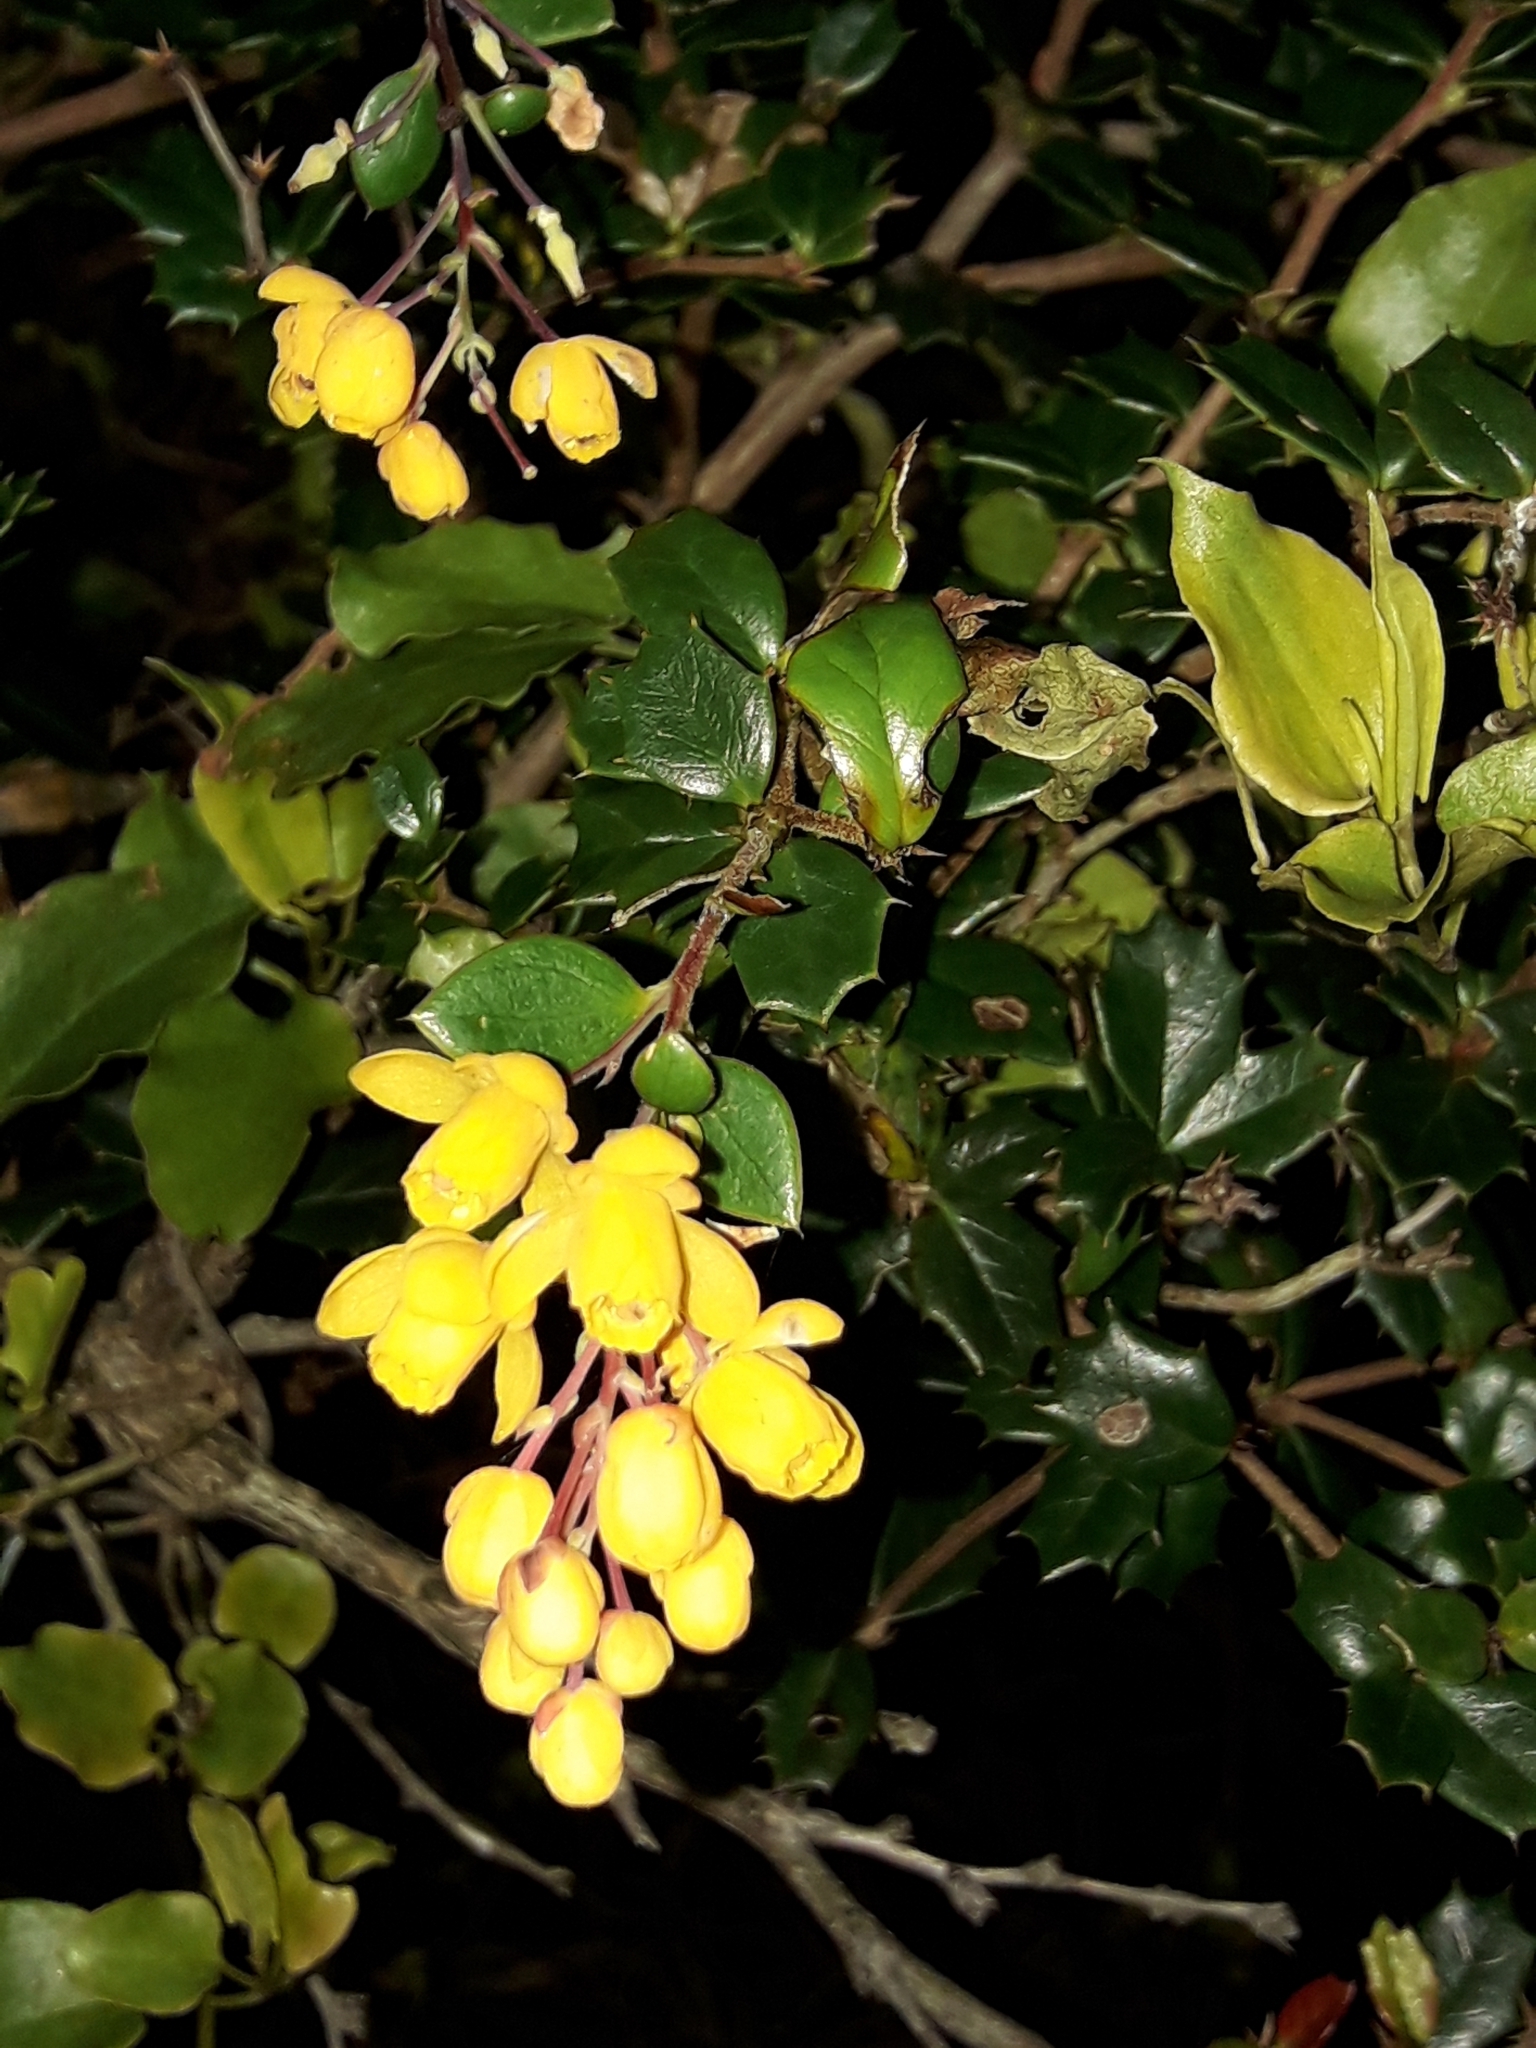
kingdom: Plantae
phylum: Tracheophyta
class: Magnoliopsida
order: Ranunculales
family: Berberidaceae
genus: Berberis
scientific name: Berberis darwinii
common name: Darwin's barberry
